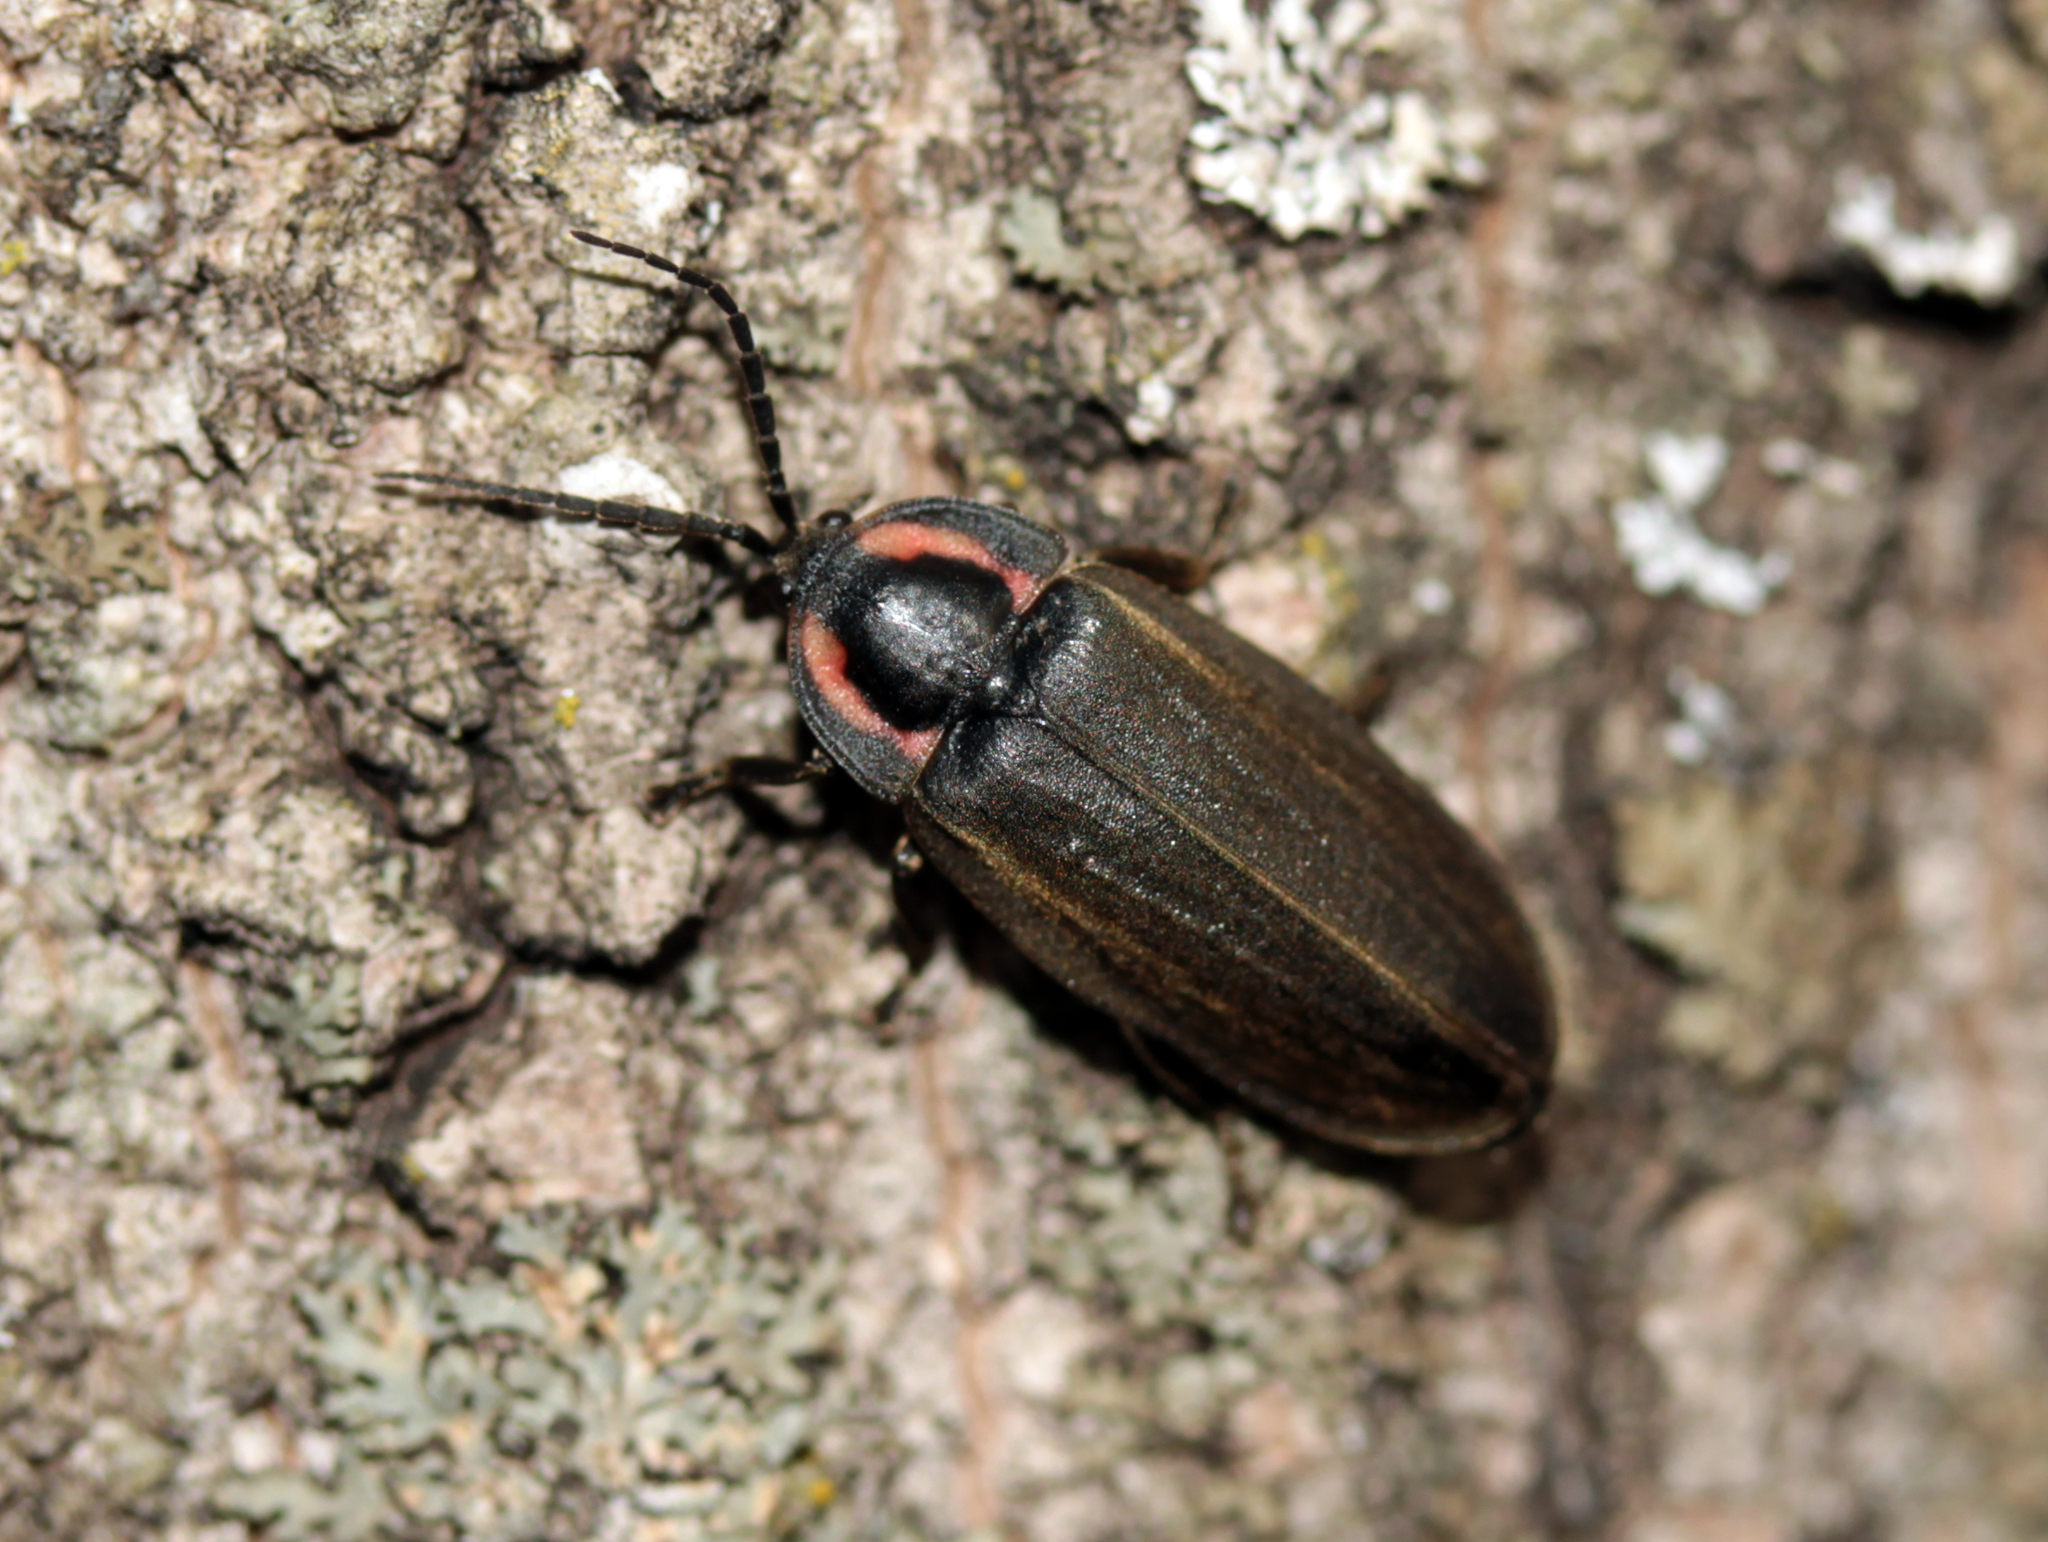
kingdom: Animalia
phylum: Arthropoda
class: Insecta
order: Coleoptera
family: Lampyridae
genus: Photinus
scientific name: Photinus corrusca
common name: Winter firefly
